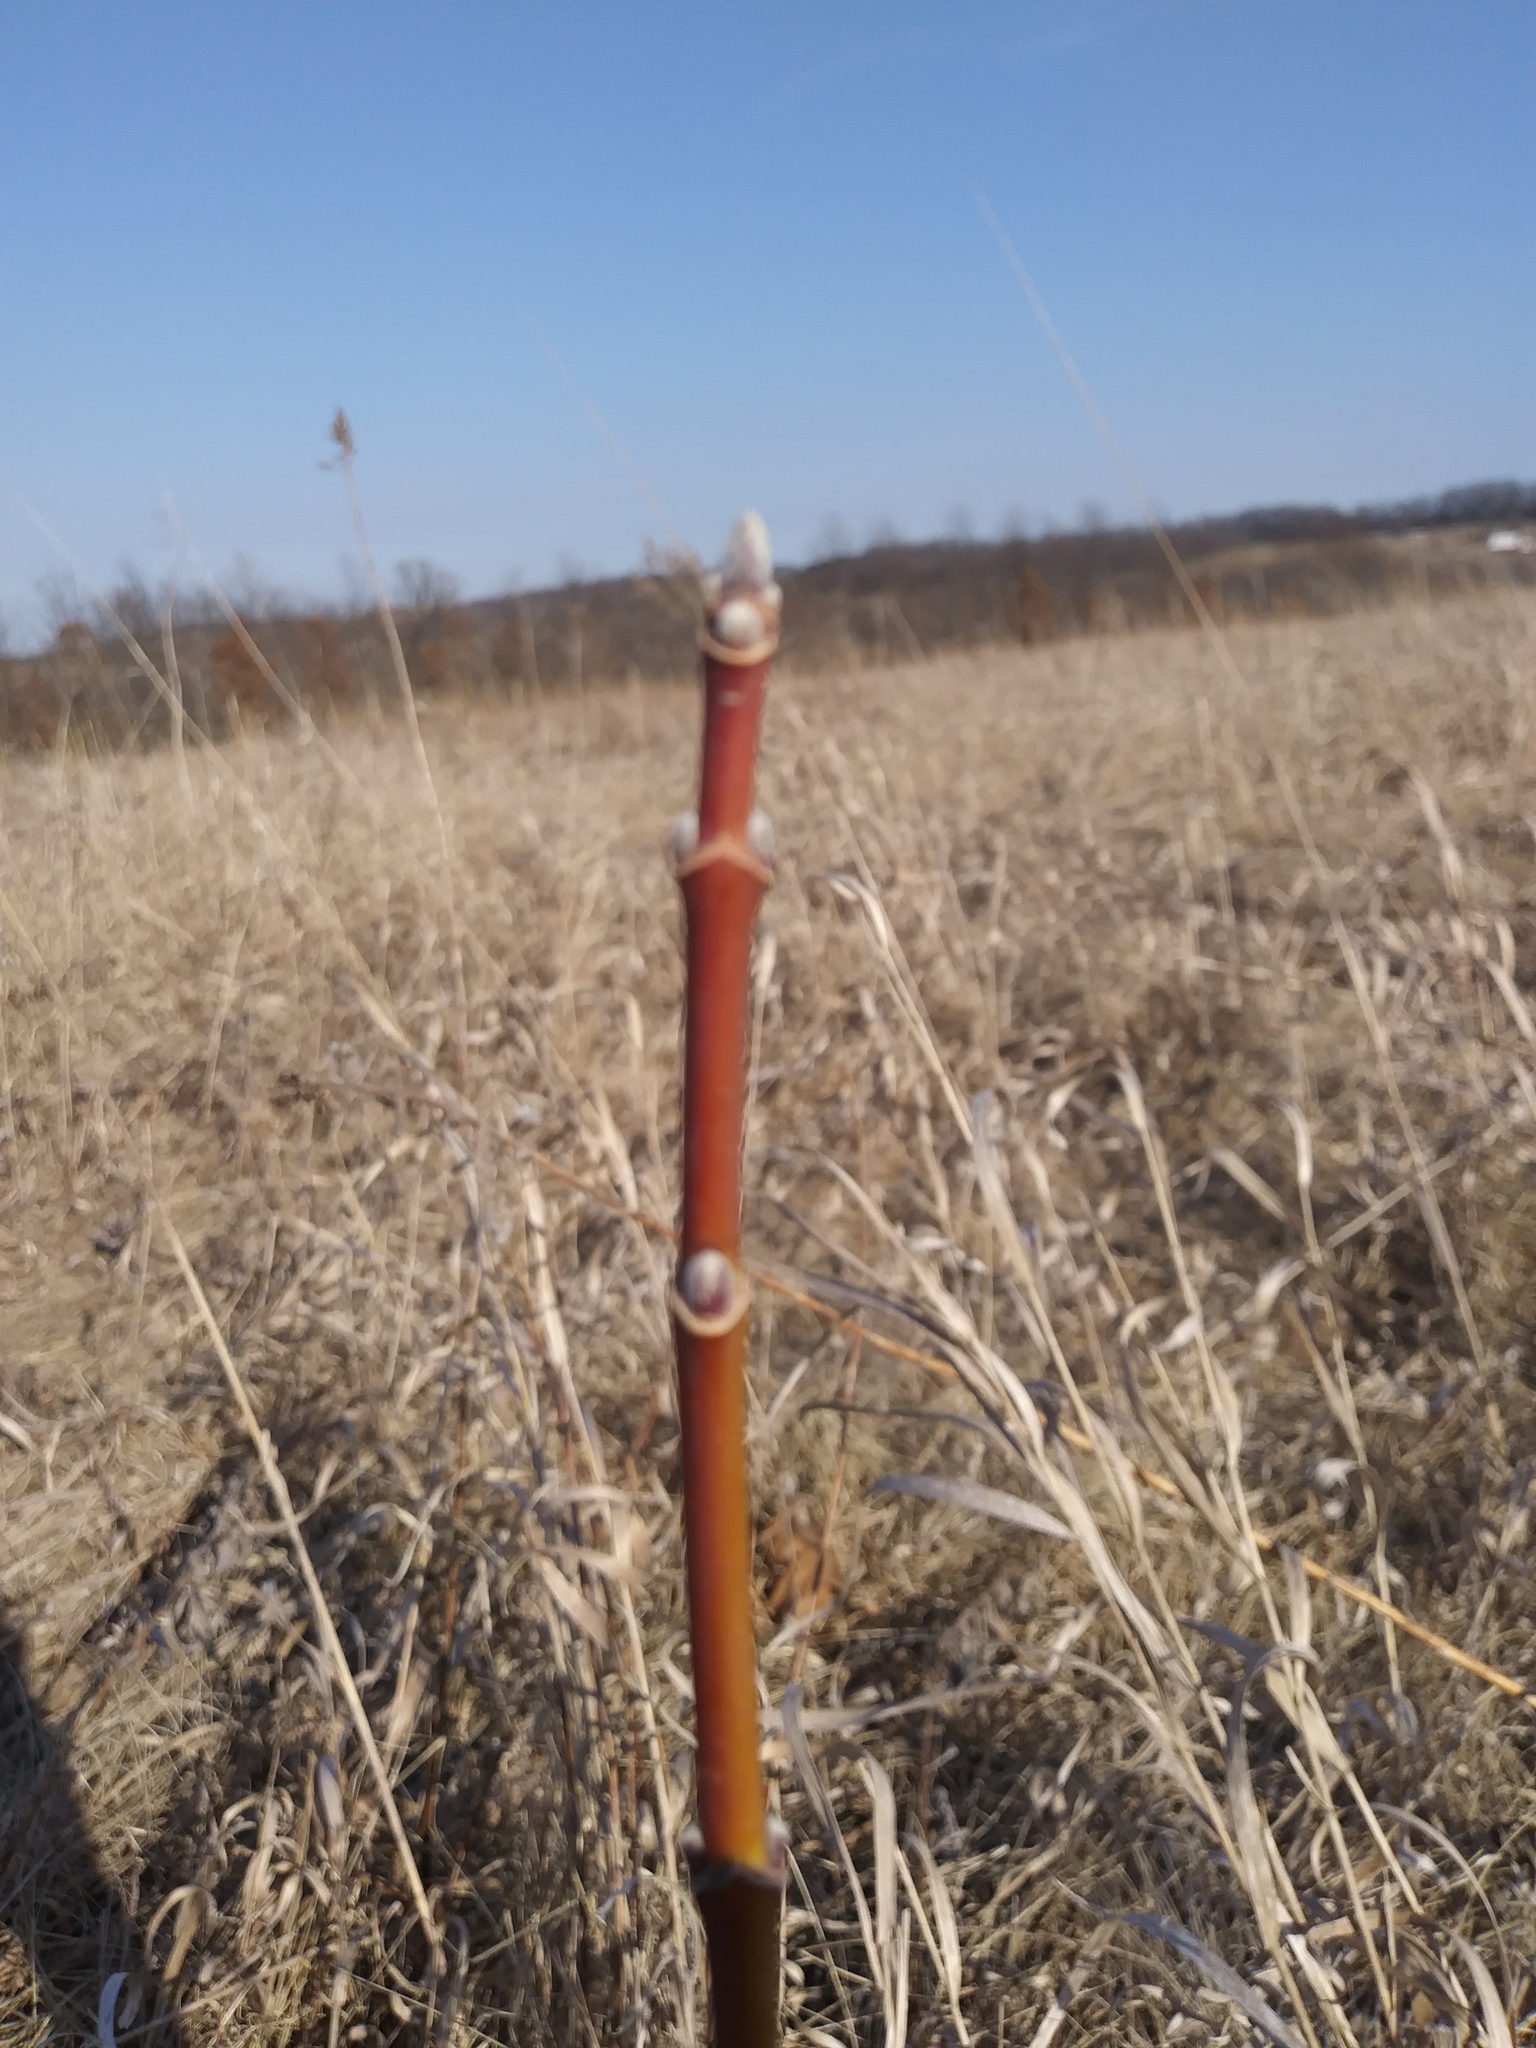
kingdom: Plantae
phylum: Tracheophyta
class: Magnoliopsida
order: Sapindales
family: Sapindaceae
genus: Acer
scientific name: Acer negundo
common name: Ashleaf maple
